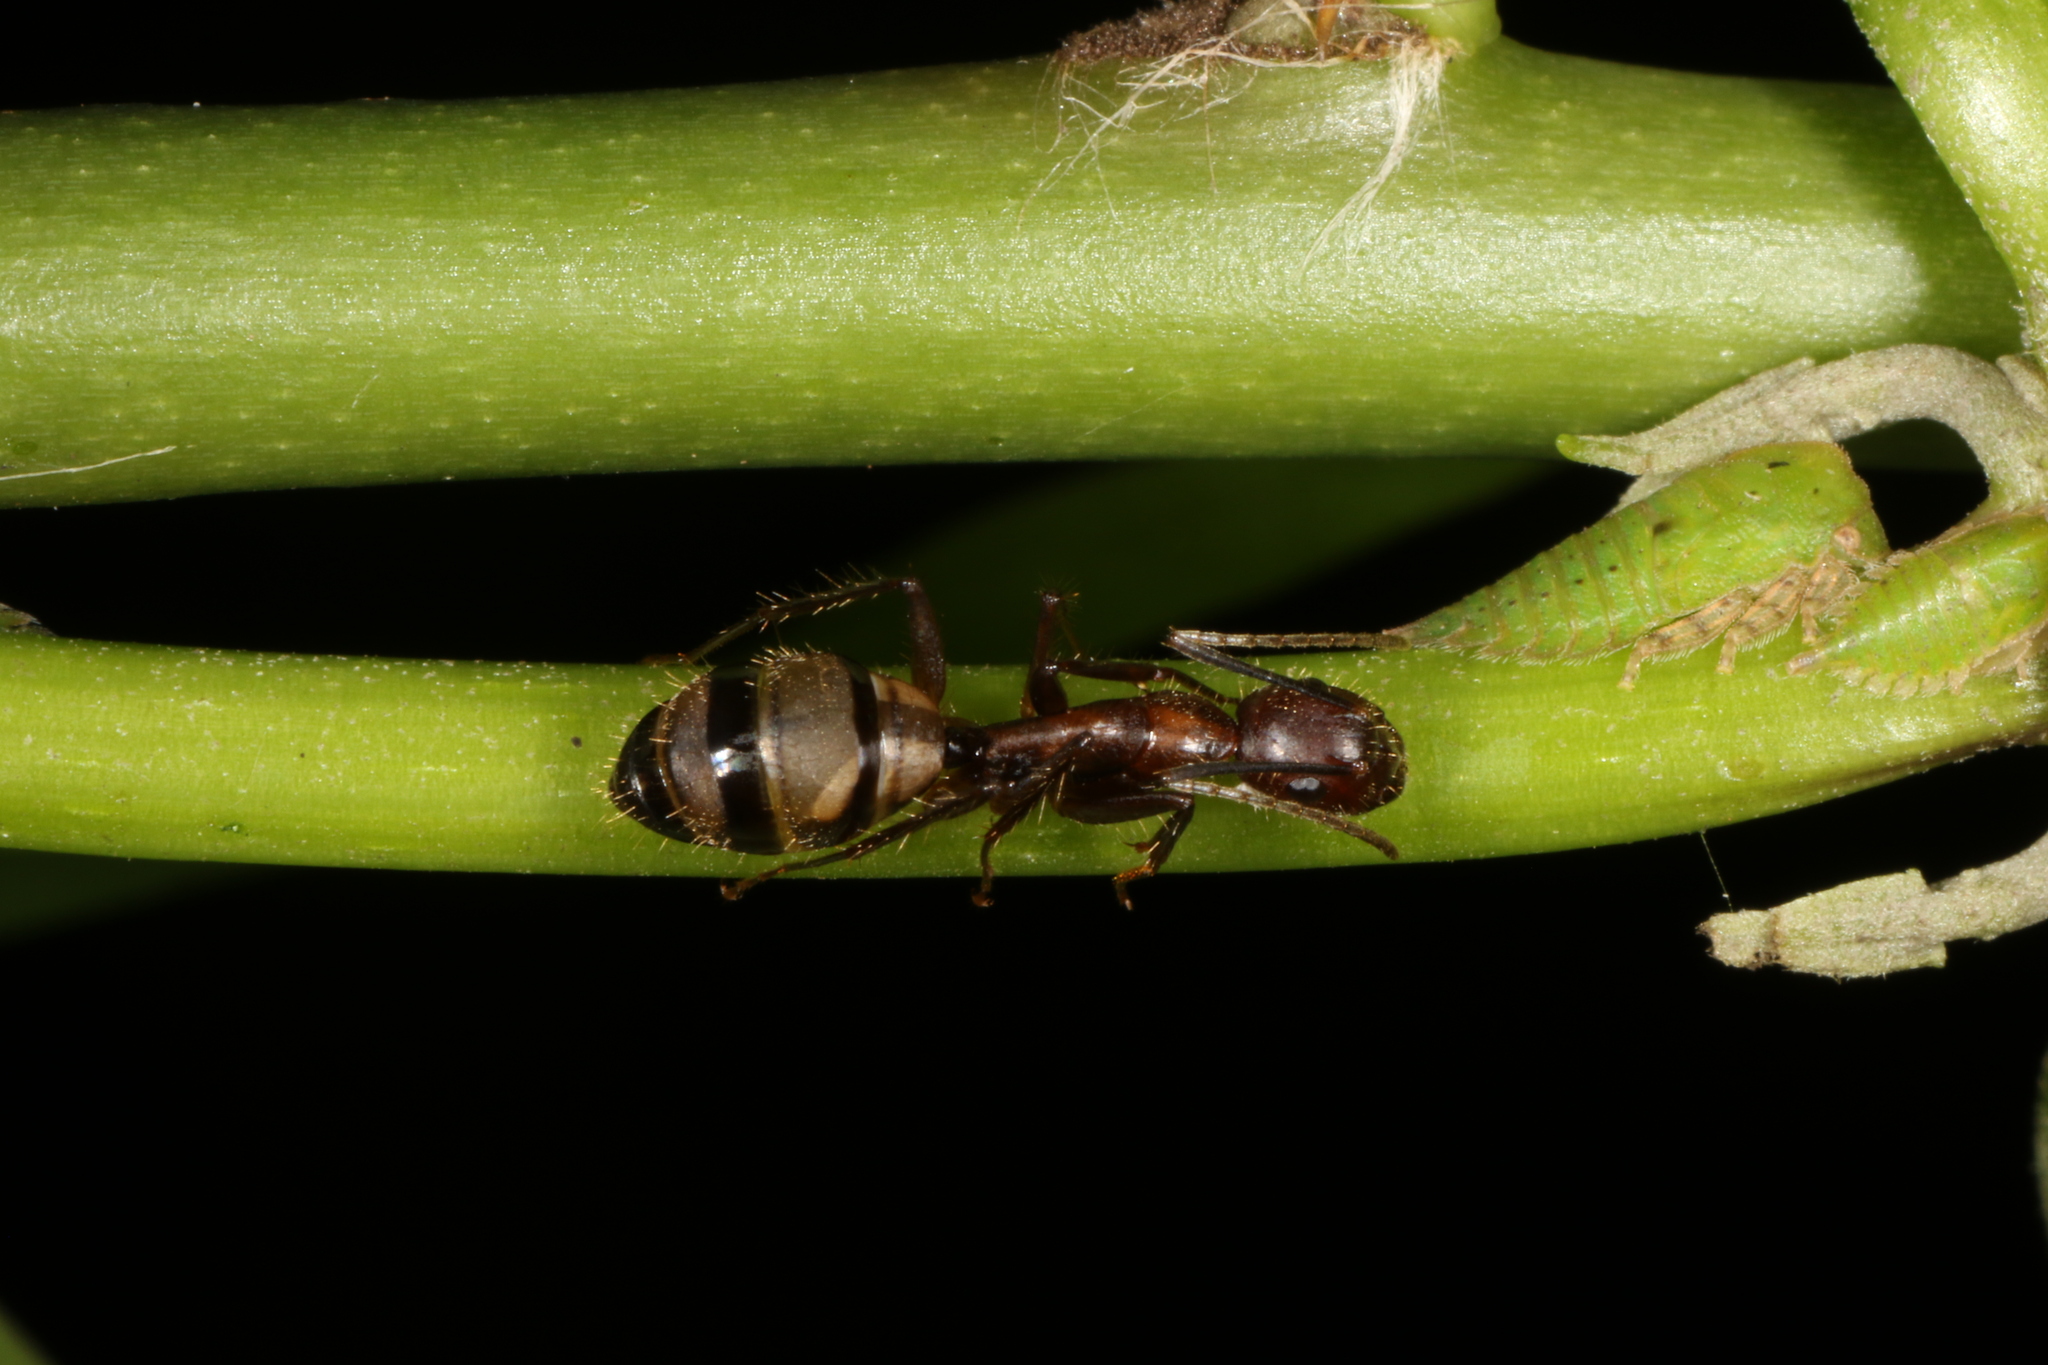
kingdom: Animalia
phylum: Arthropoda
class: Insecta
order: Hymenoptera
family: Formicidae
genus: Camponotus
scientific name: Camponotus cingulatus
